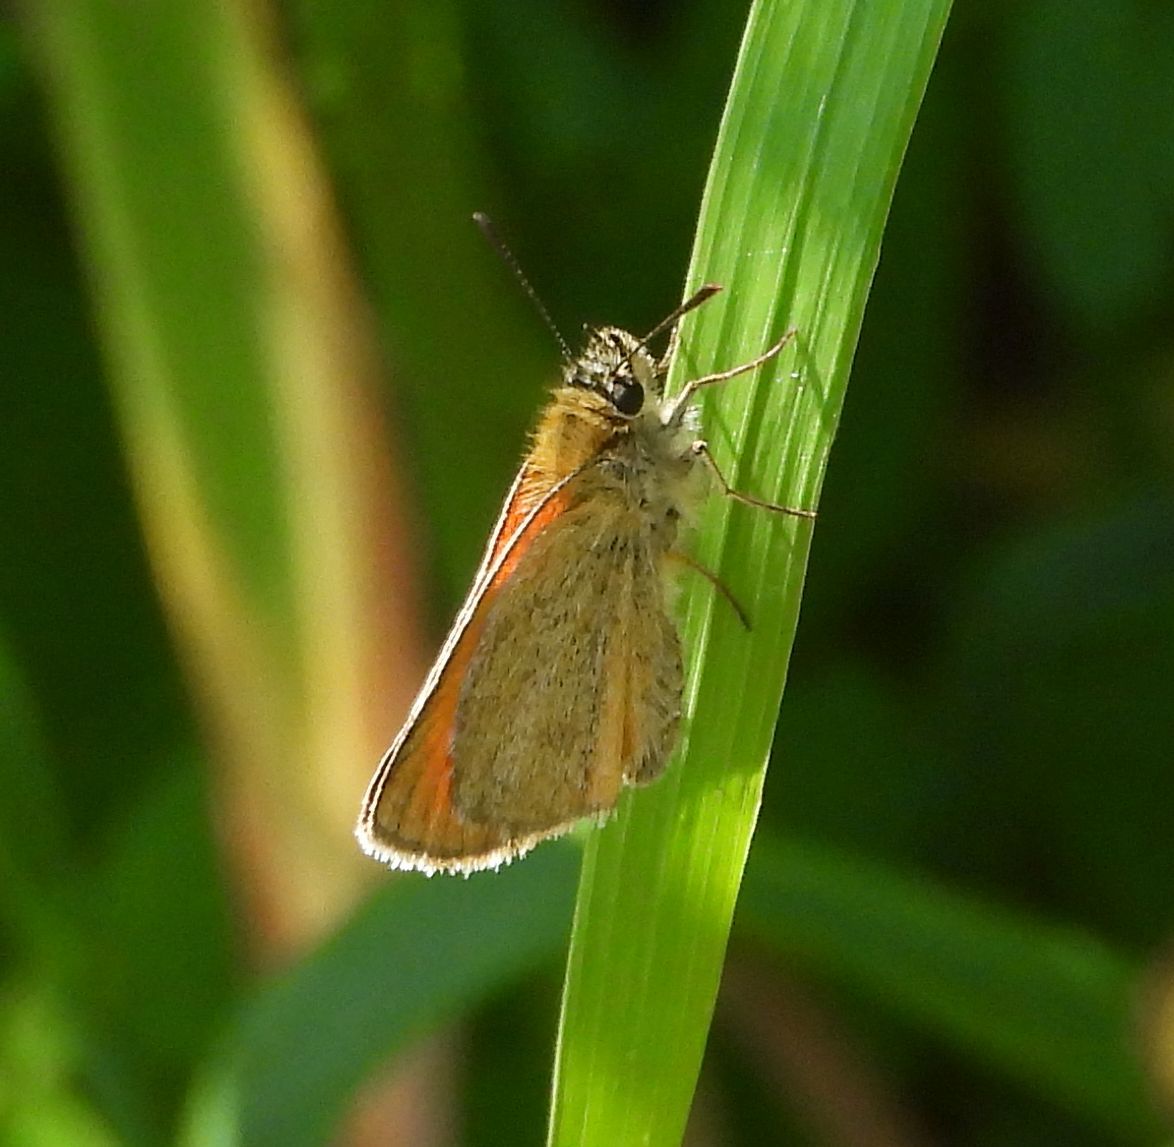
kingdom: Animalia
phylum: Arthropoda
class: Insecta
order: Lepidoptera
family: Hesperiidae
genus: Thymelicus
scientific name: Thymelicus lineola
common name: Essex skipper
